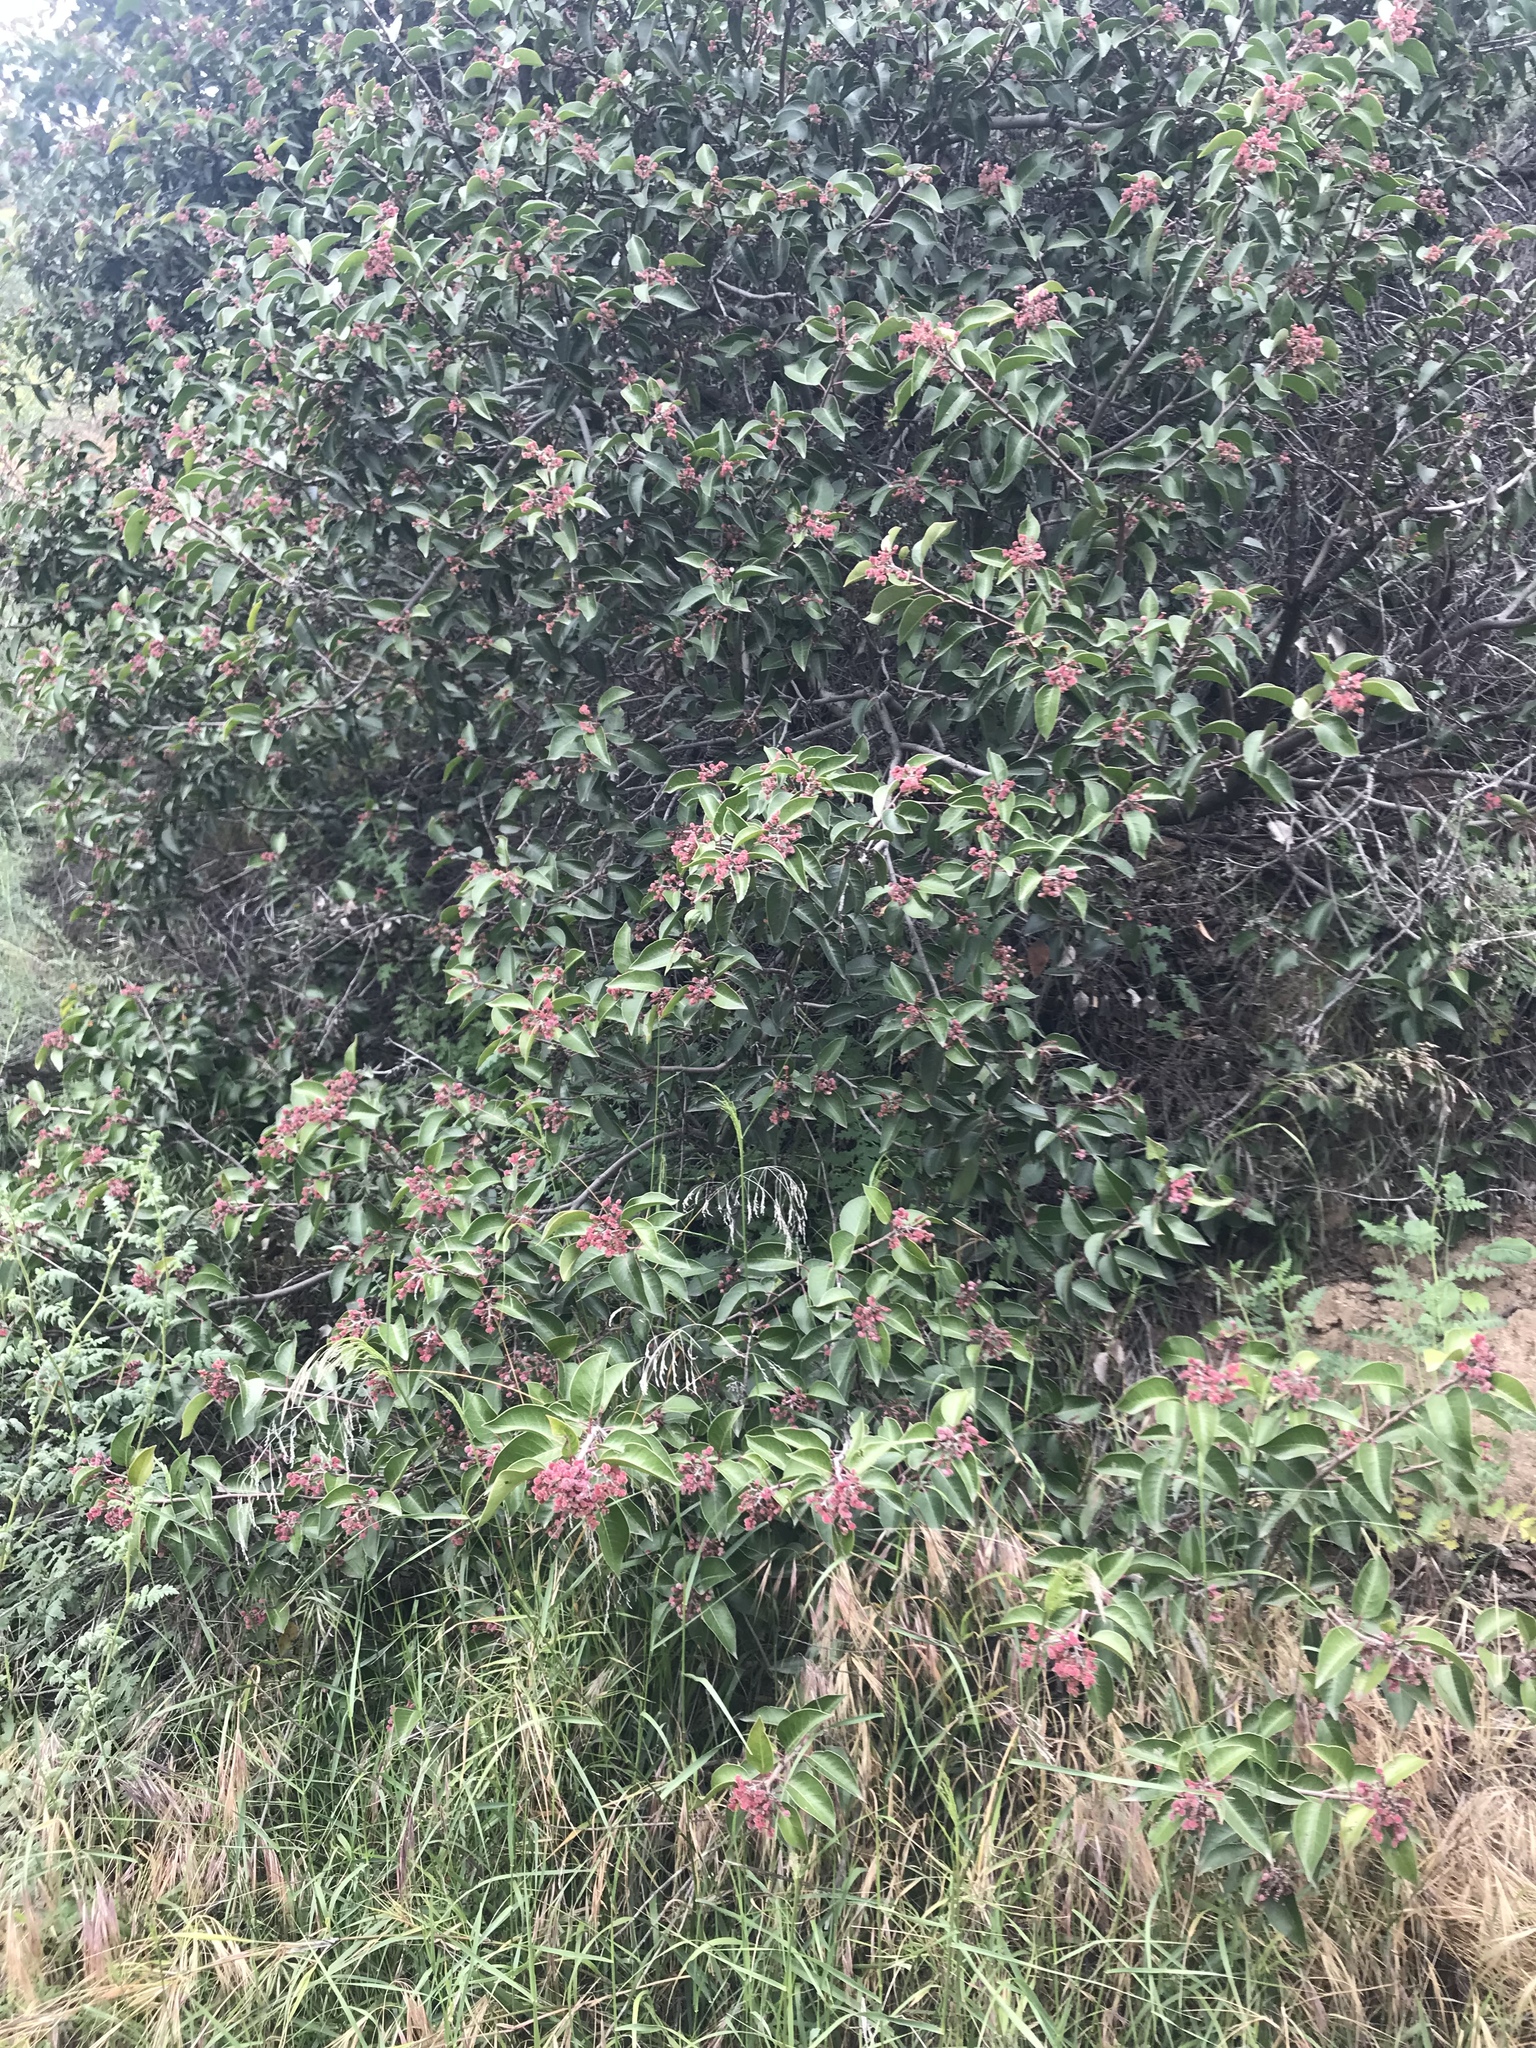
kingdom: Plantae
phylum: Tracheophyta
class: Magnoliopsida
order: Sapindales
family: Anacardiaceae
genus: Rhus
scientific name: Rhus ovata
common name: Sugar sumac
